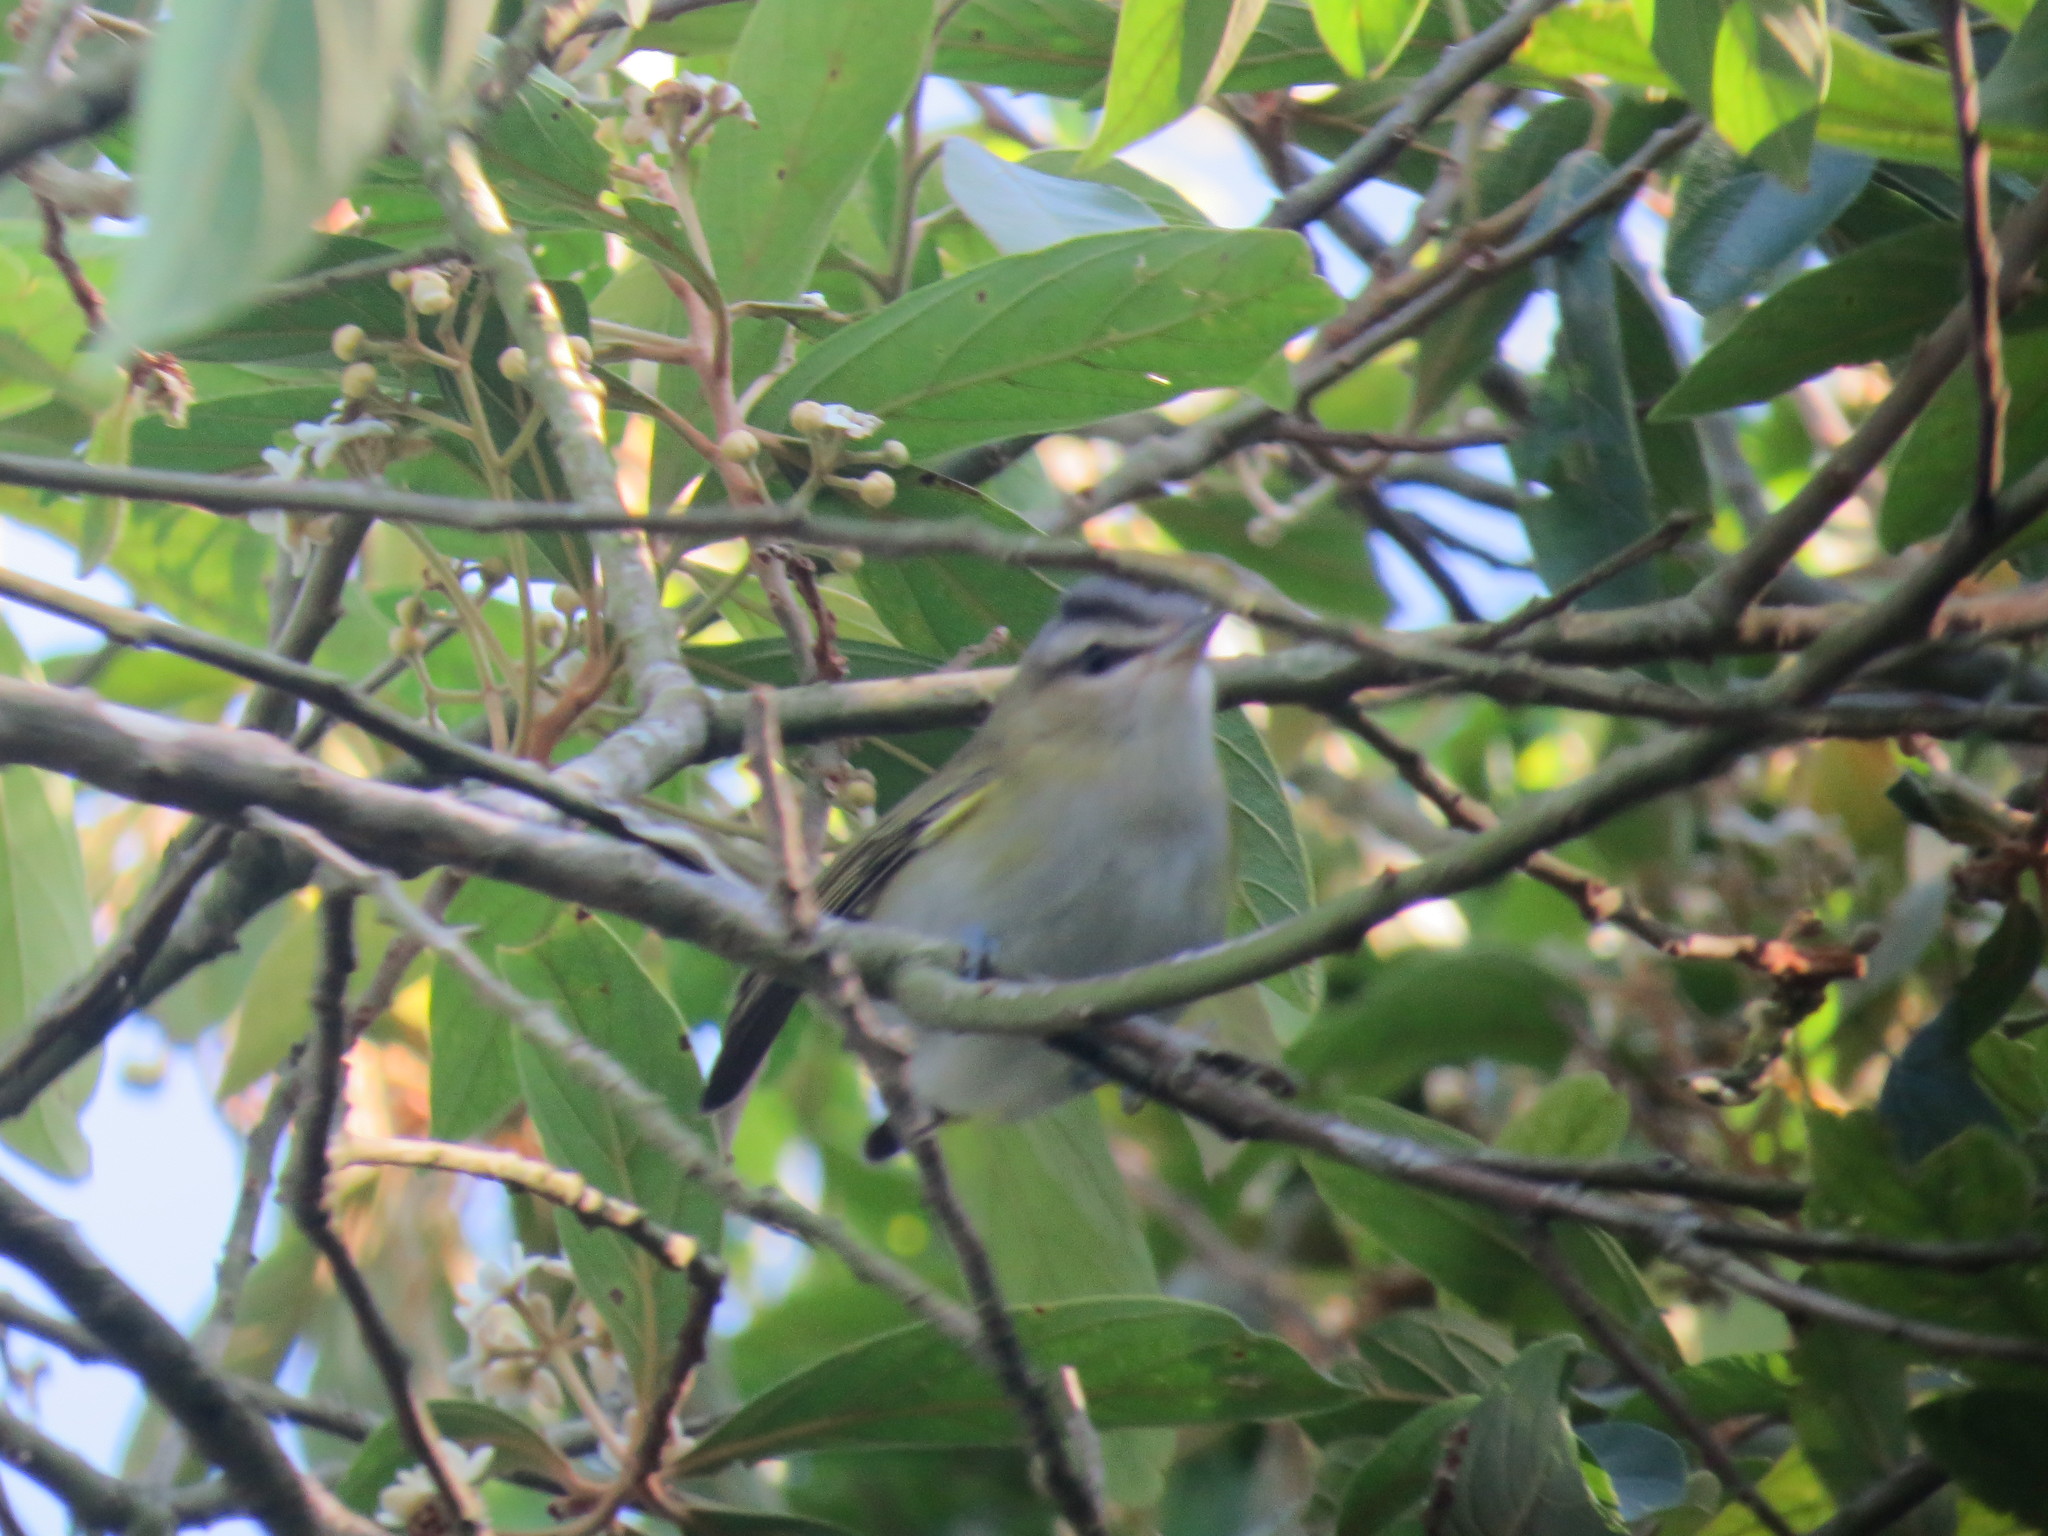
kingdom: Animalia
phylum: Chordata
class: Aves
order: Passeriformes
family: Vireonidae
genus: Vireo
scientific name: Vireo olivaceus
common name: Red-eyed vireo
